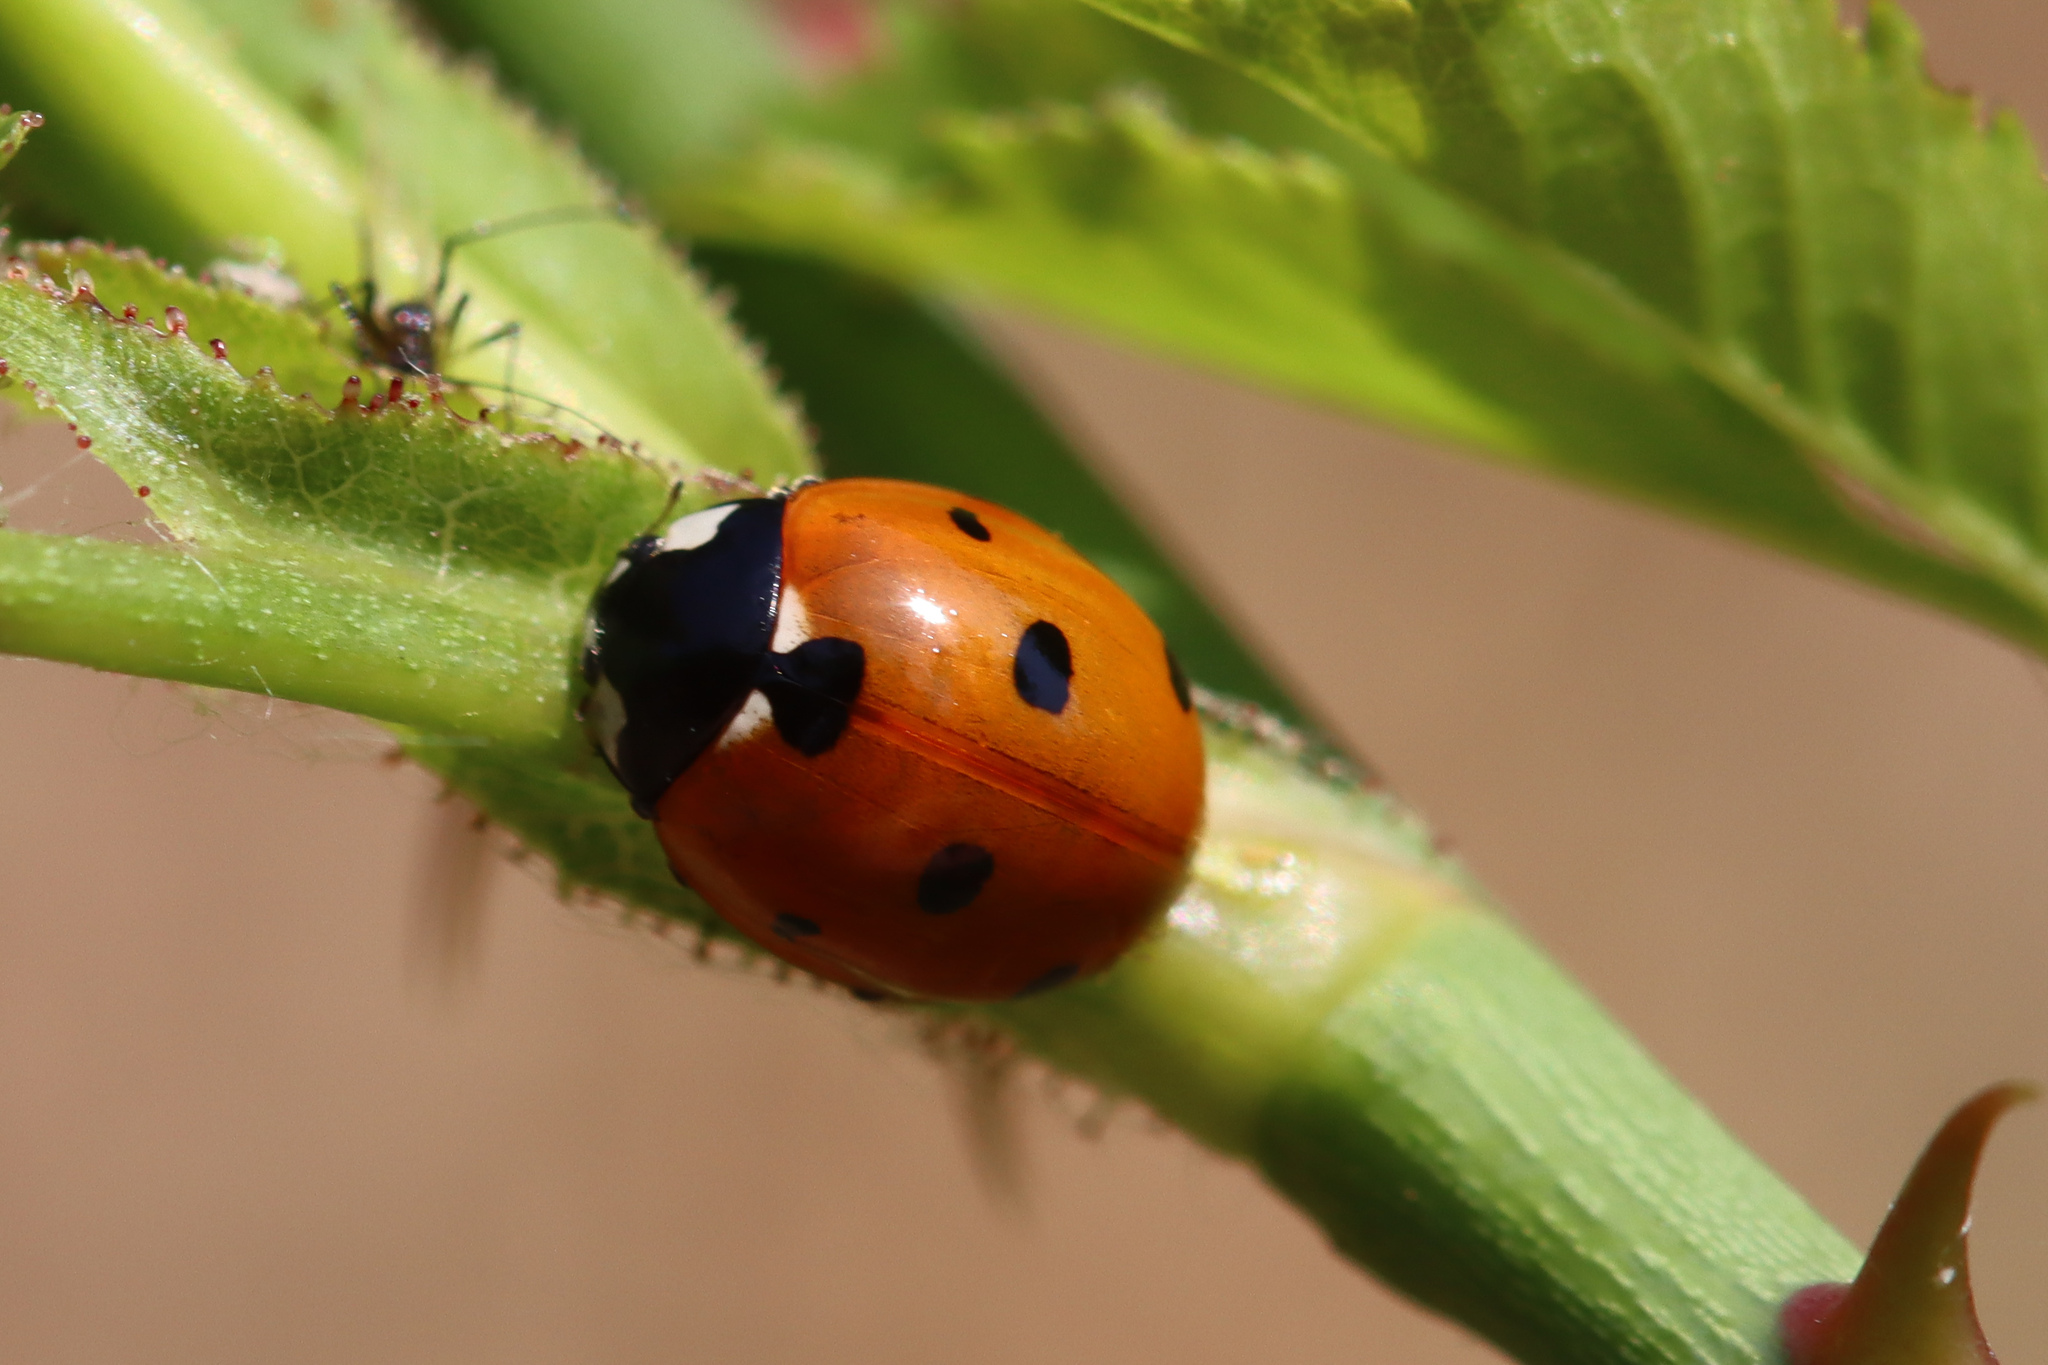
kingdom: Animalia
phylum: Arthropoda
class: Insecta
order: Coleoptera
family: Coccinellidae
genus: Coccinella
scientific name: Coccinella septempunctata
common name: Sevenspotted lady beetle
